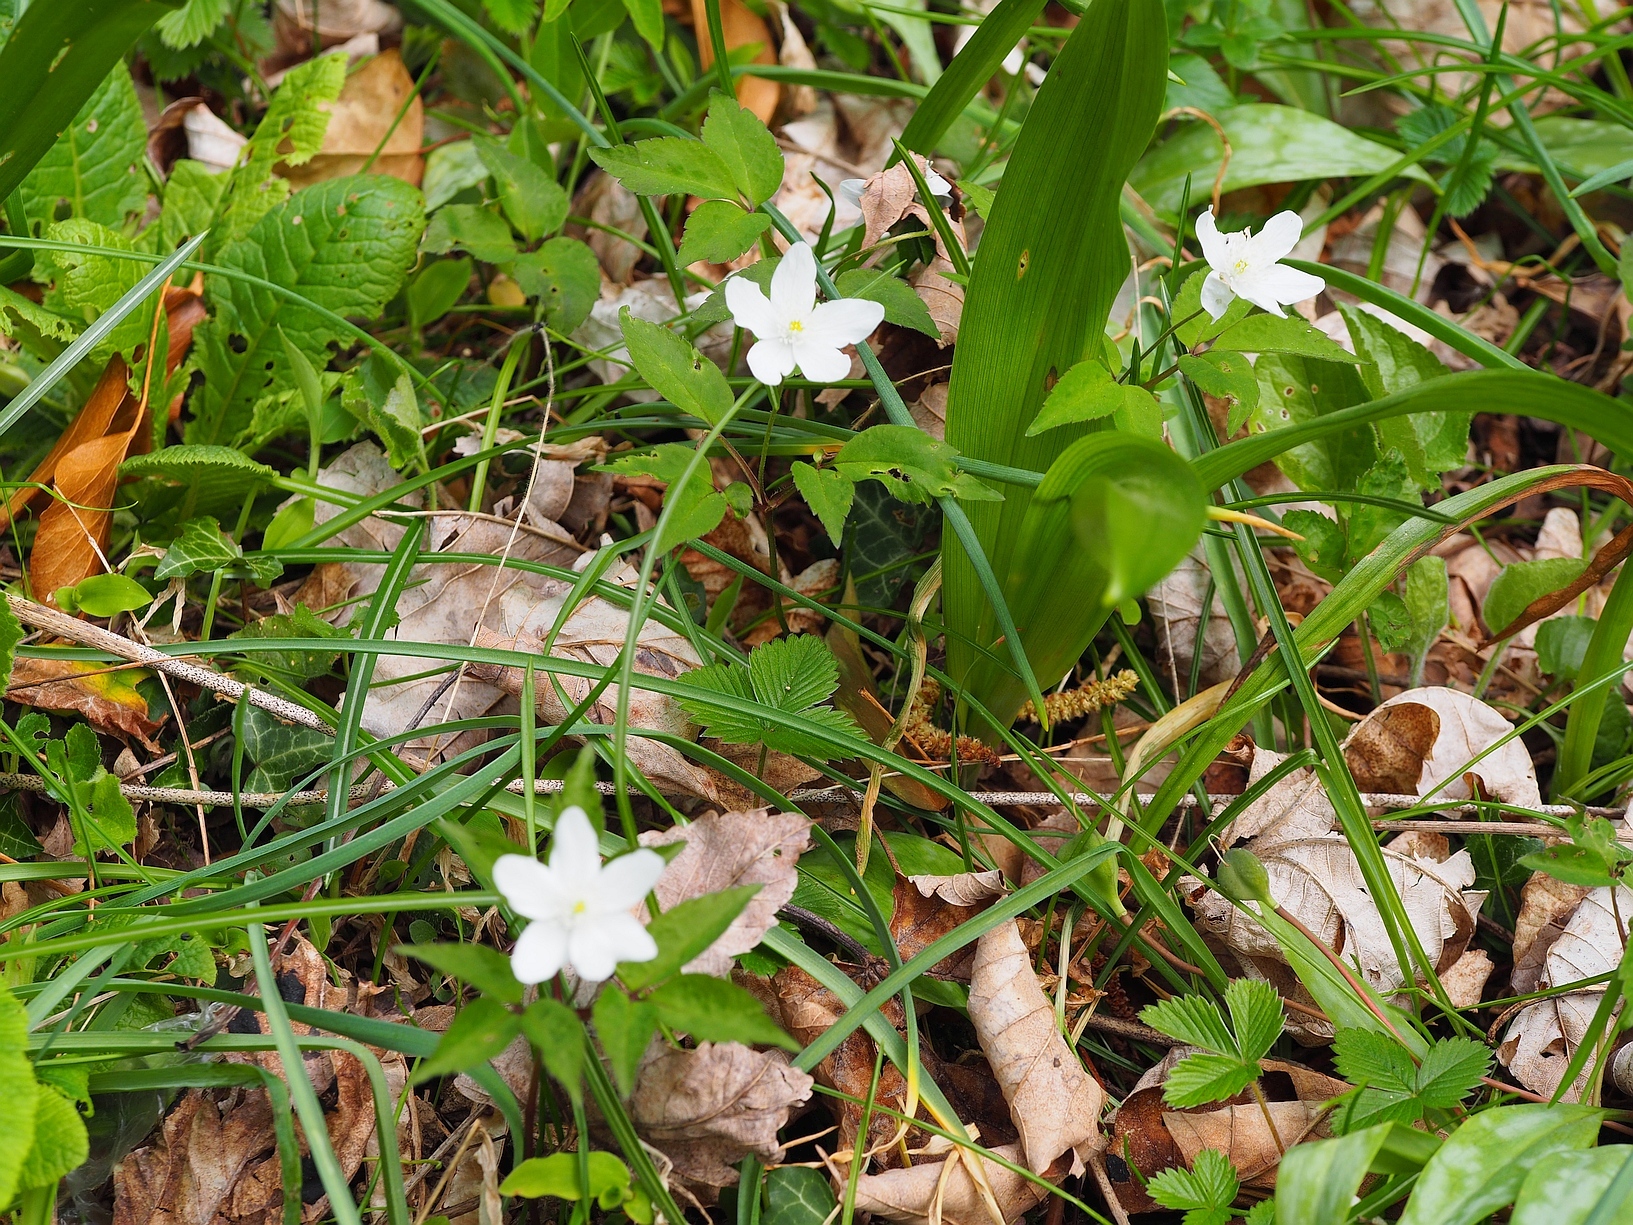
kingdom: Plantae
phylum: Tracheophyta
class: Magnoliopsida
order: Ranunculales
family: Ranunculaceae
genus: Anemone
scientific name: Anemone trifolia
